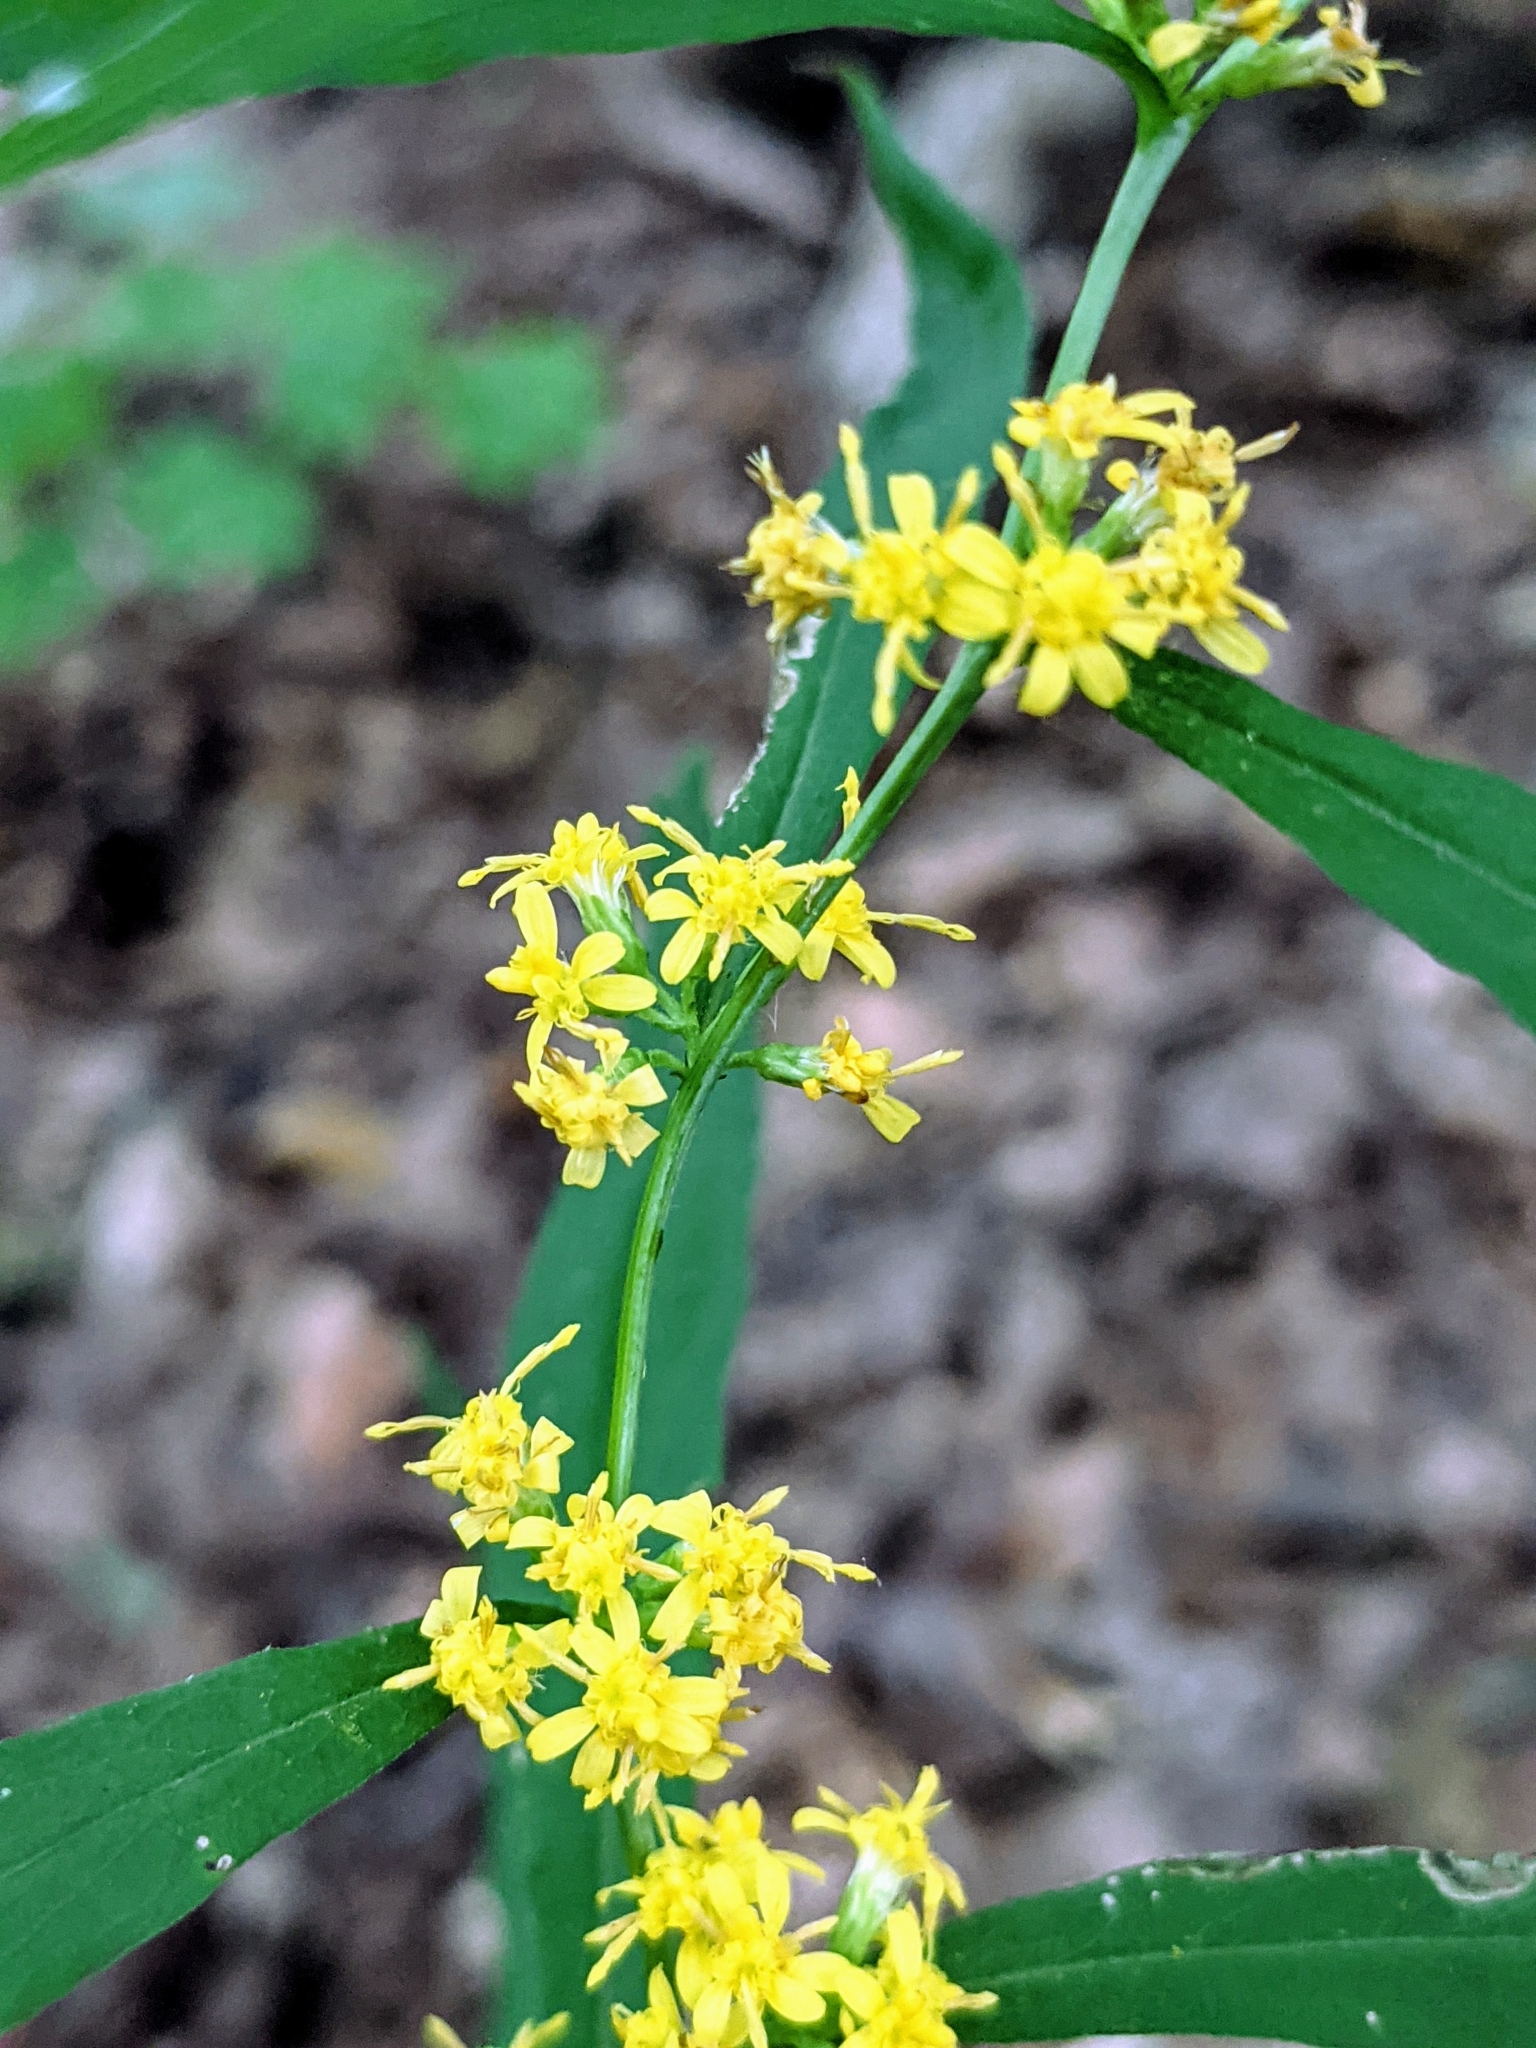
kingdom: Plantae
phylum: Tracheophyta
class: Magnoliopsida
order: Asterales
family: Asteraceae
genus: Solidago
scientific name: Solidago caesia
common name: Woodland goldenrod
